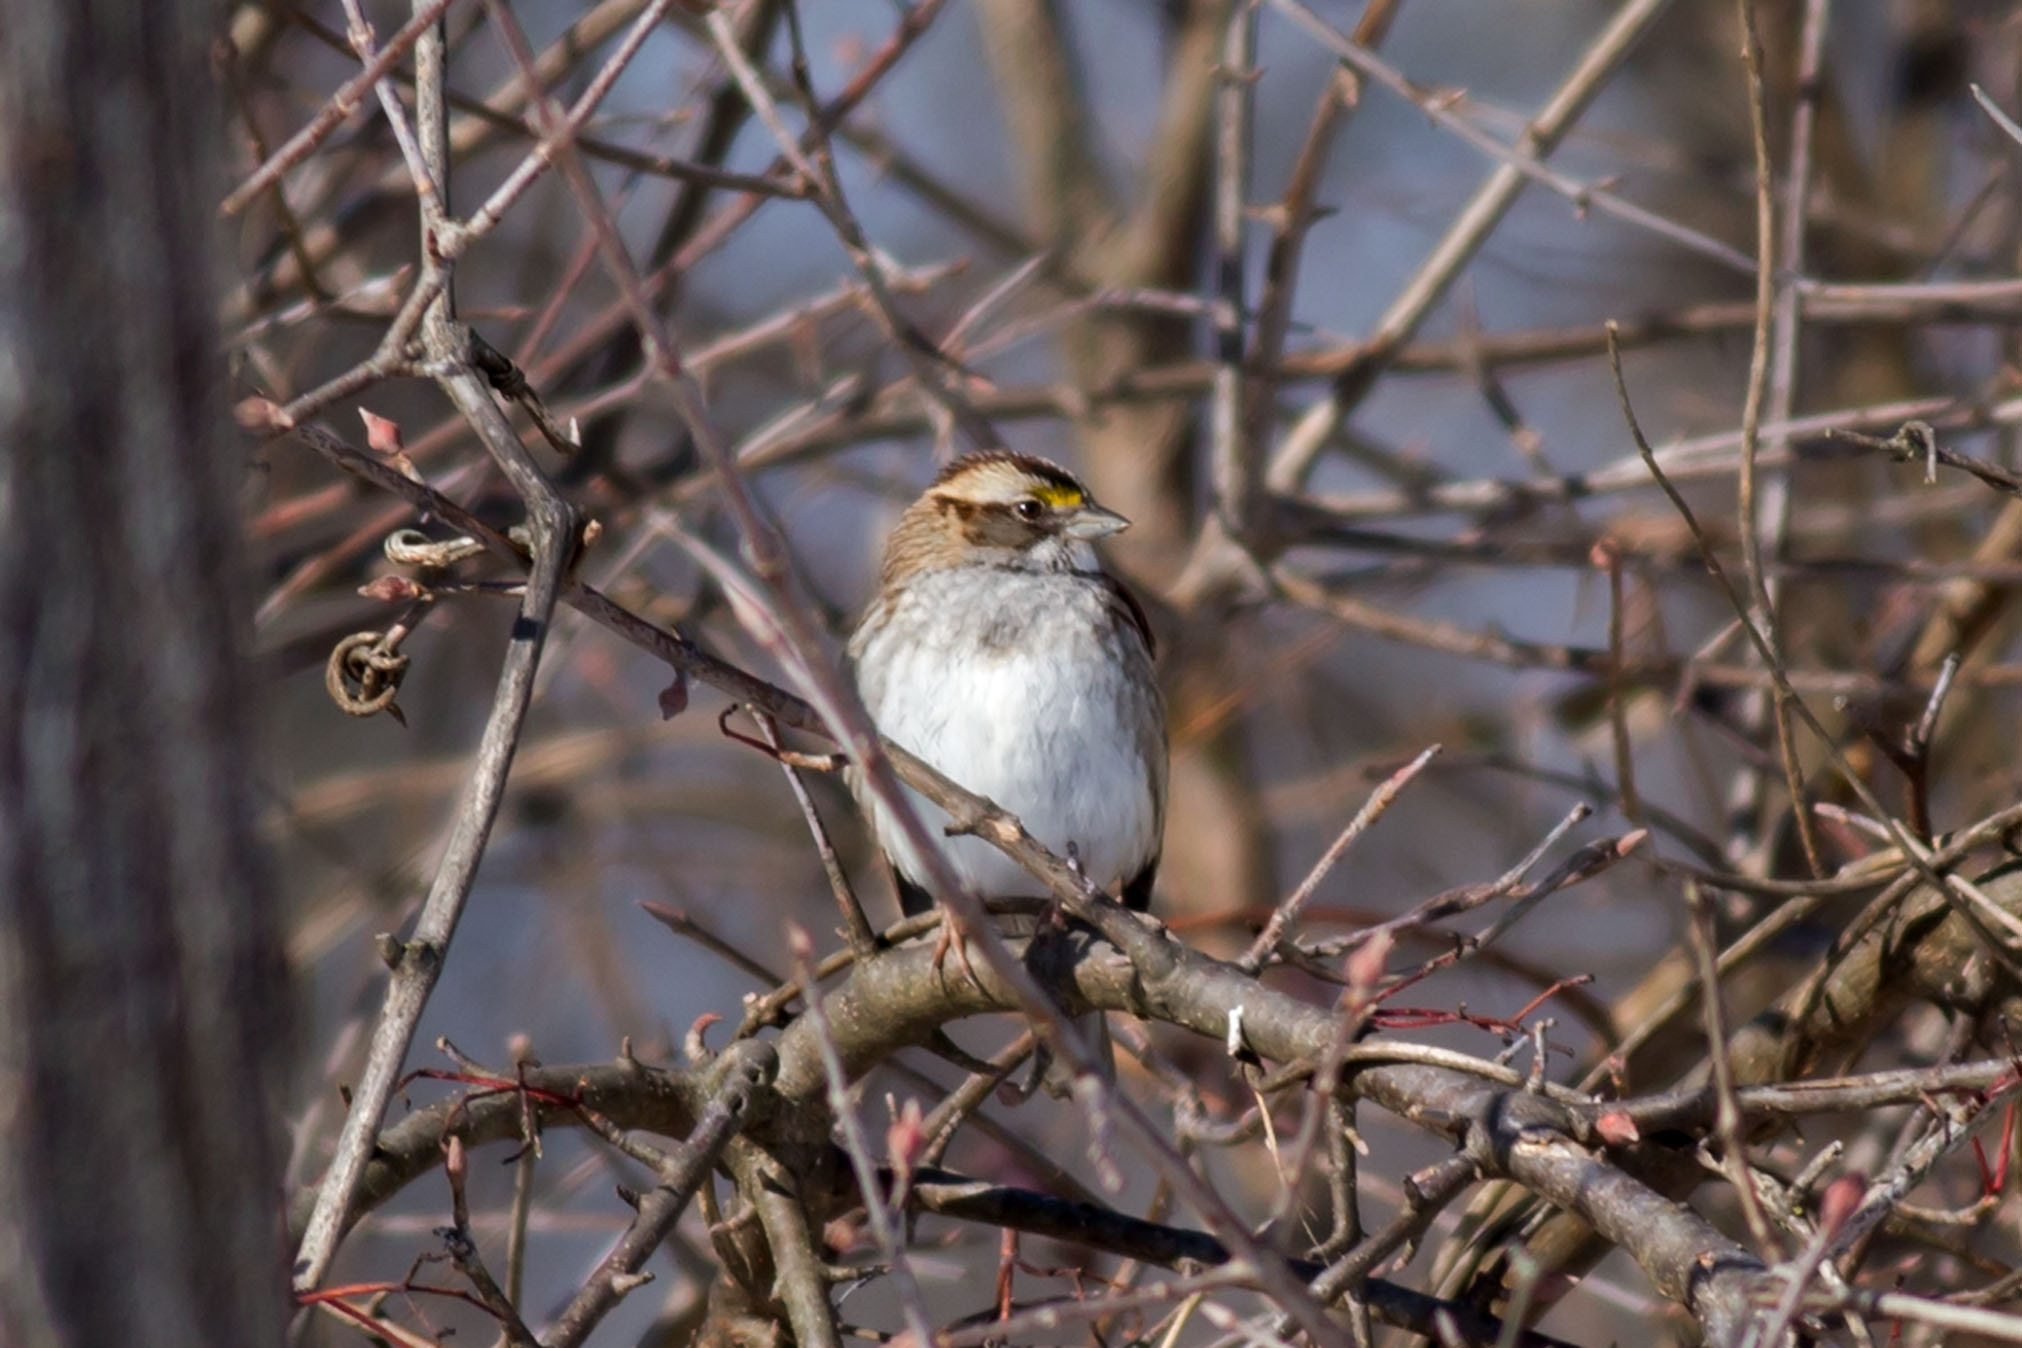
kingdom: Animalia
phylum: Chordata
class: Aves
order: Passeriformes
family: Passerellidae
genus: Zonotrichia
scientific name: Zonotrichia albicollis
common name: White-throated sparrow
